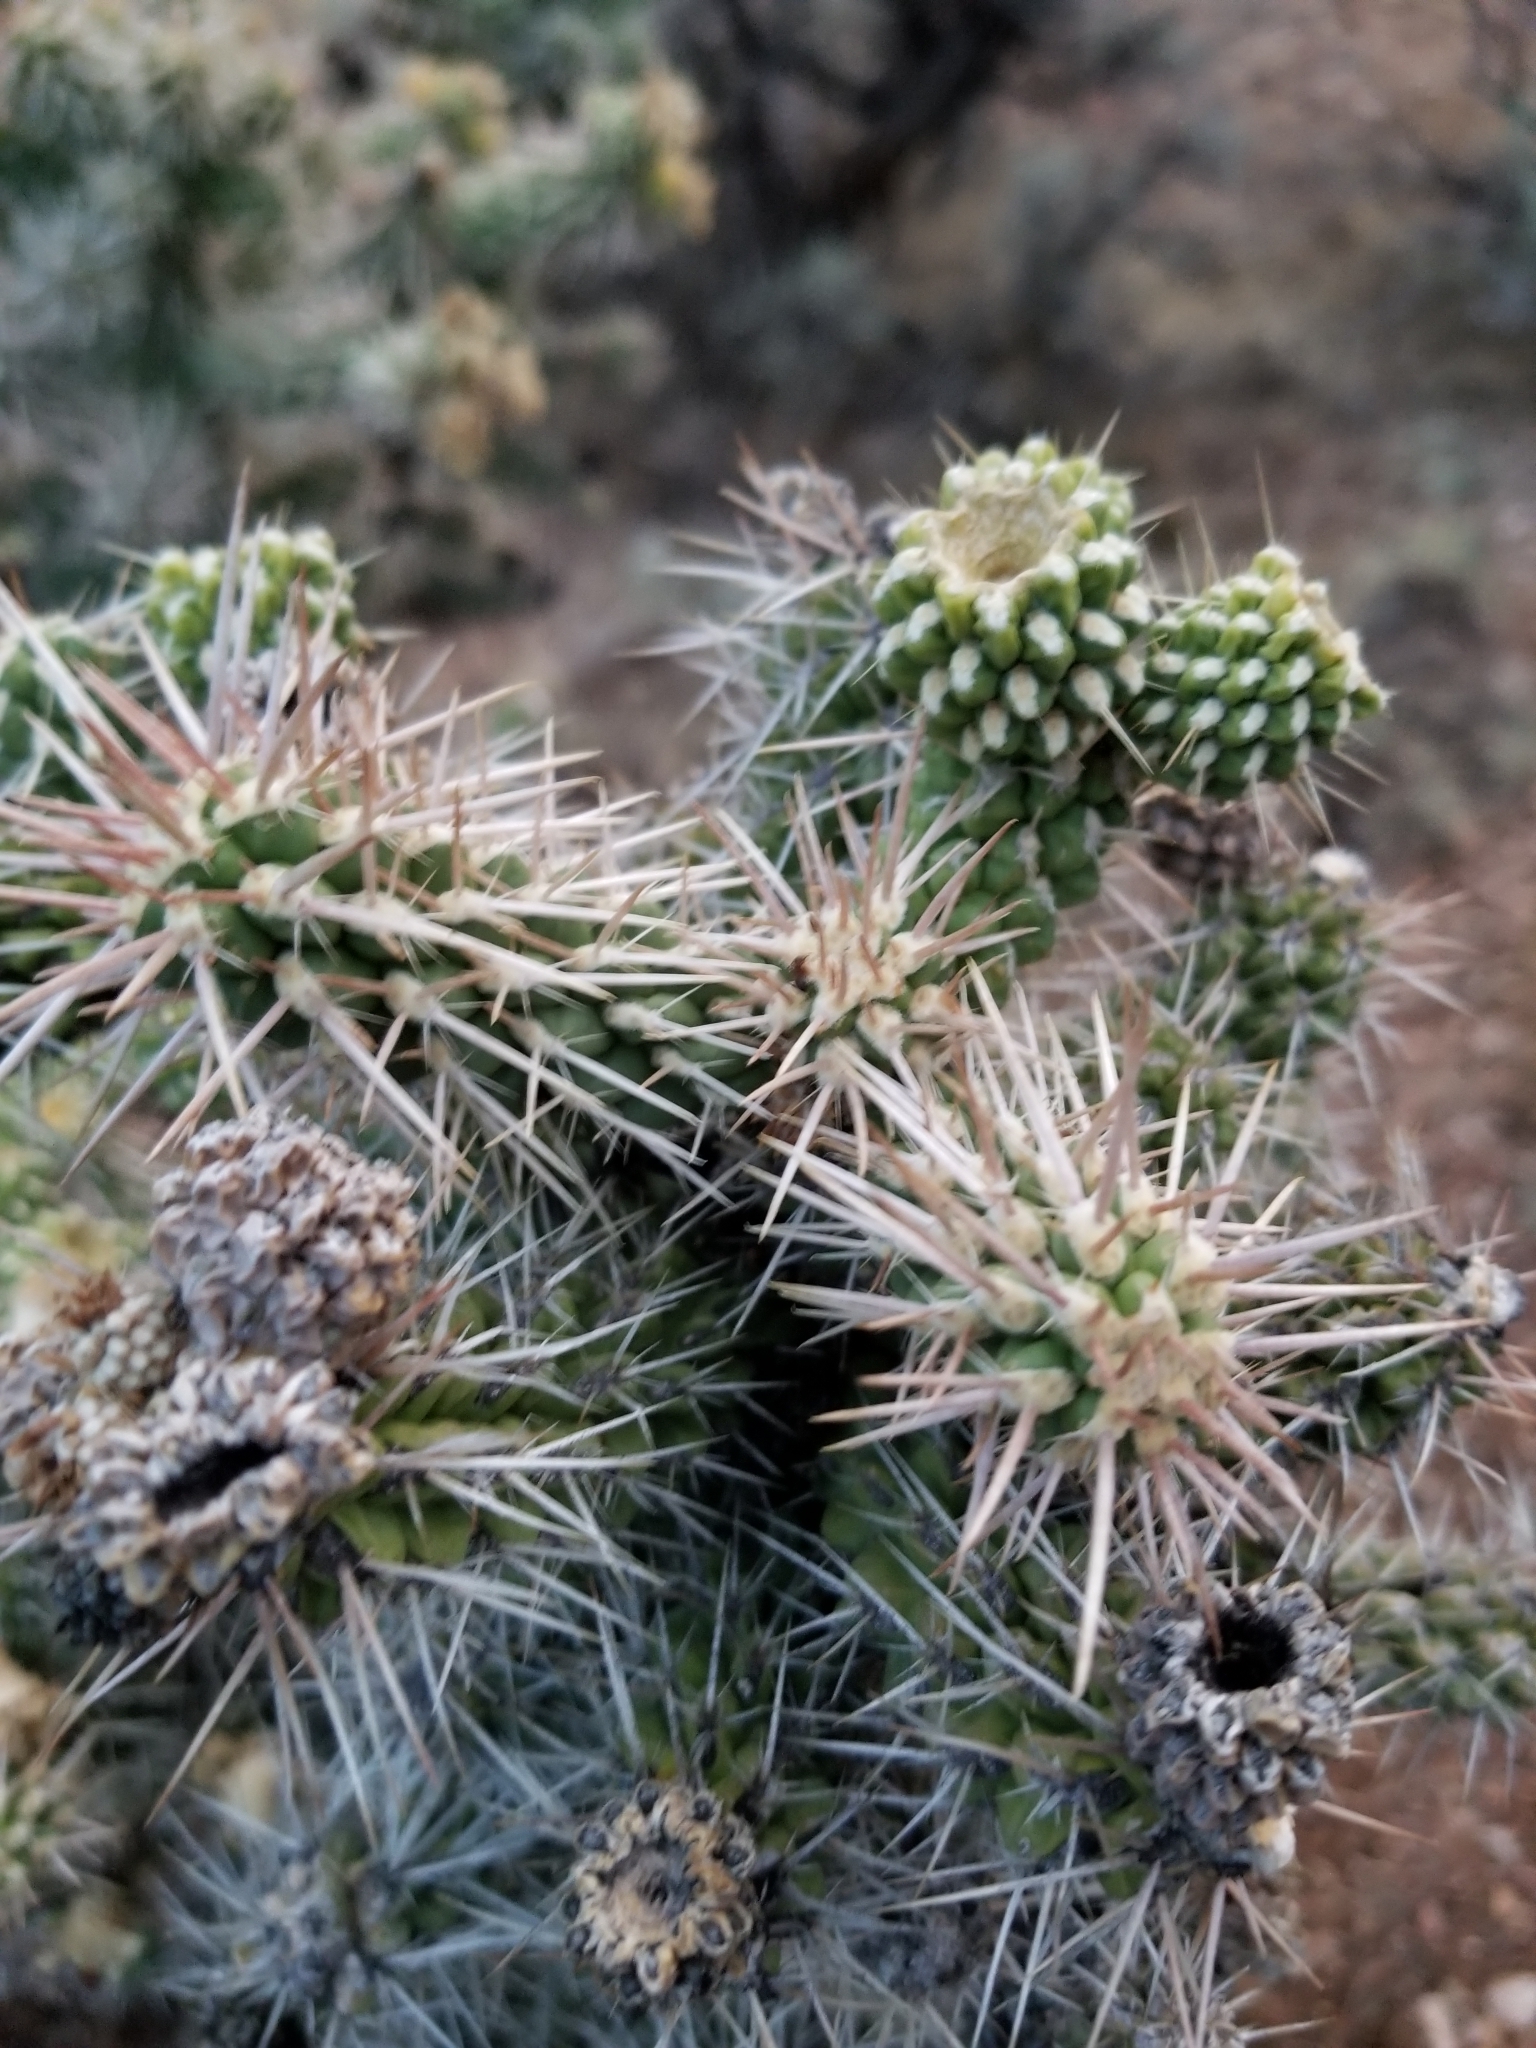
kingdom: Plantae
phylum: Tracheophyta
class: Magnoliopsida
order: Caryophyllales
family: Cactaceae
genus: Cylindropuntia
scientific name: Cylindropuntia whipplei
